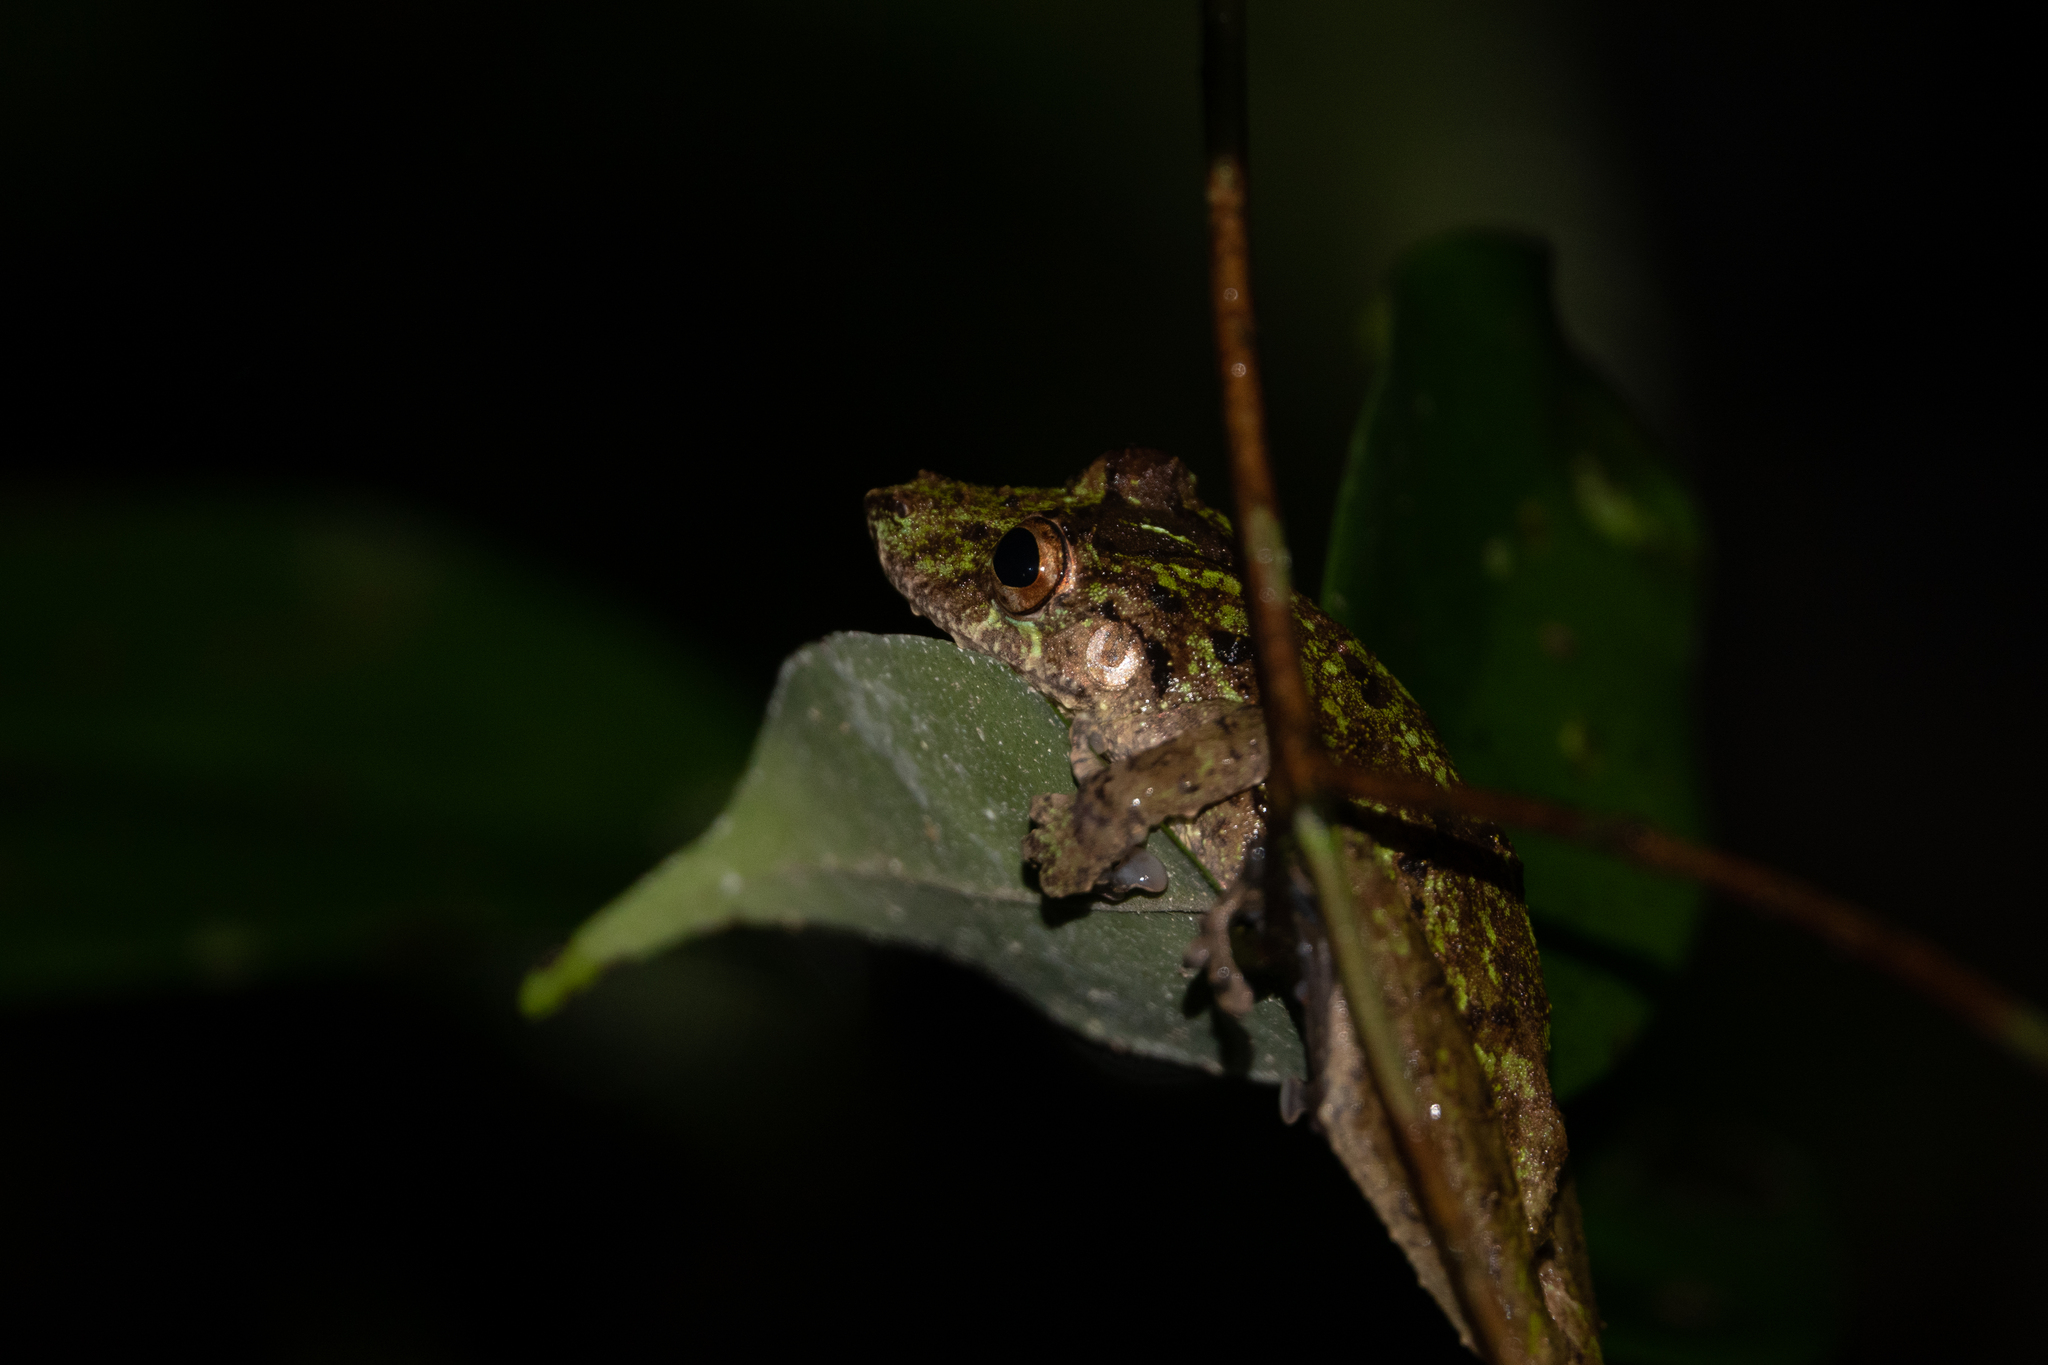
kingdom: Animalia
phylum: Chordata
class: Amphibia
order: Anura
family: Hylidae
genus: Scinax
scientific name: Scinax garbei
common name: Eirunepe snouted treefrog
